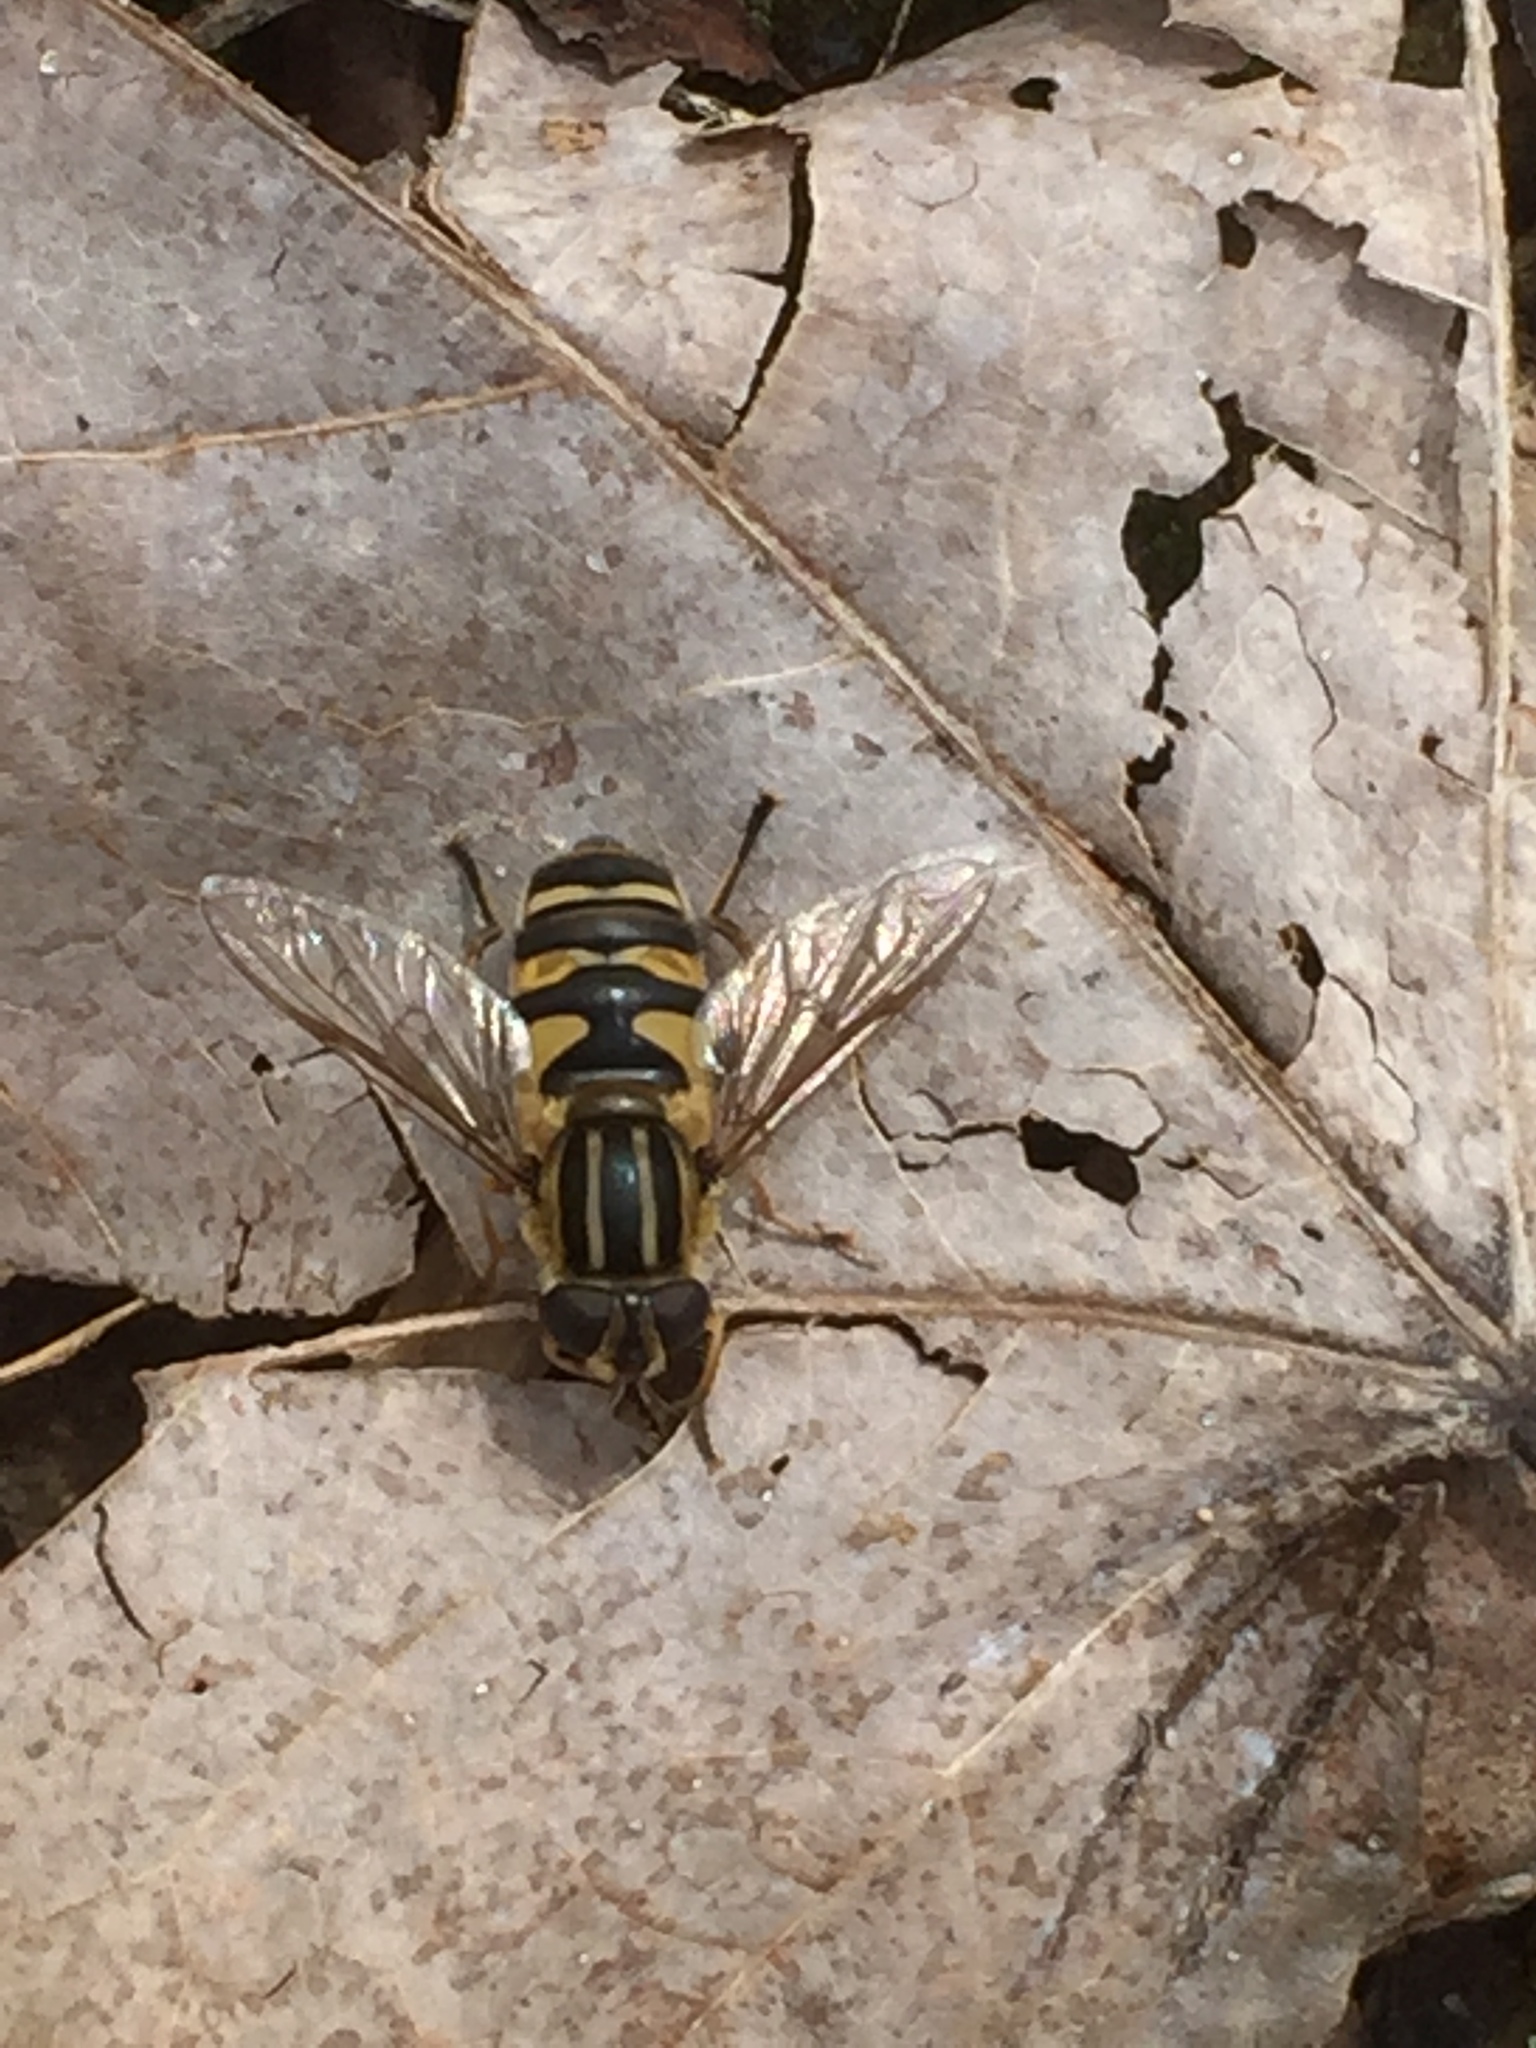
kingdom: Animalia
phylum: Arthropoda
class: Insecta
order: Diptera
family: Syrphidae
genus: Helophilus
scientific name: Helophilus fasciatus
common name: Narrow-headed marsh fly
